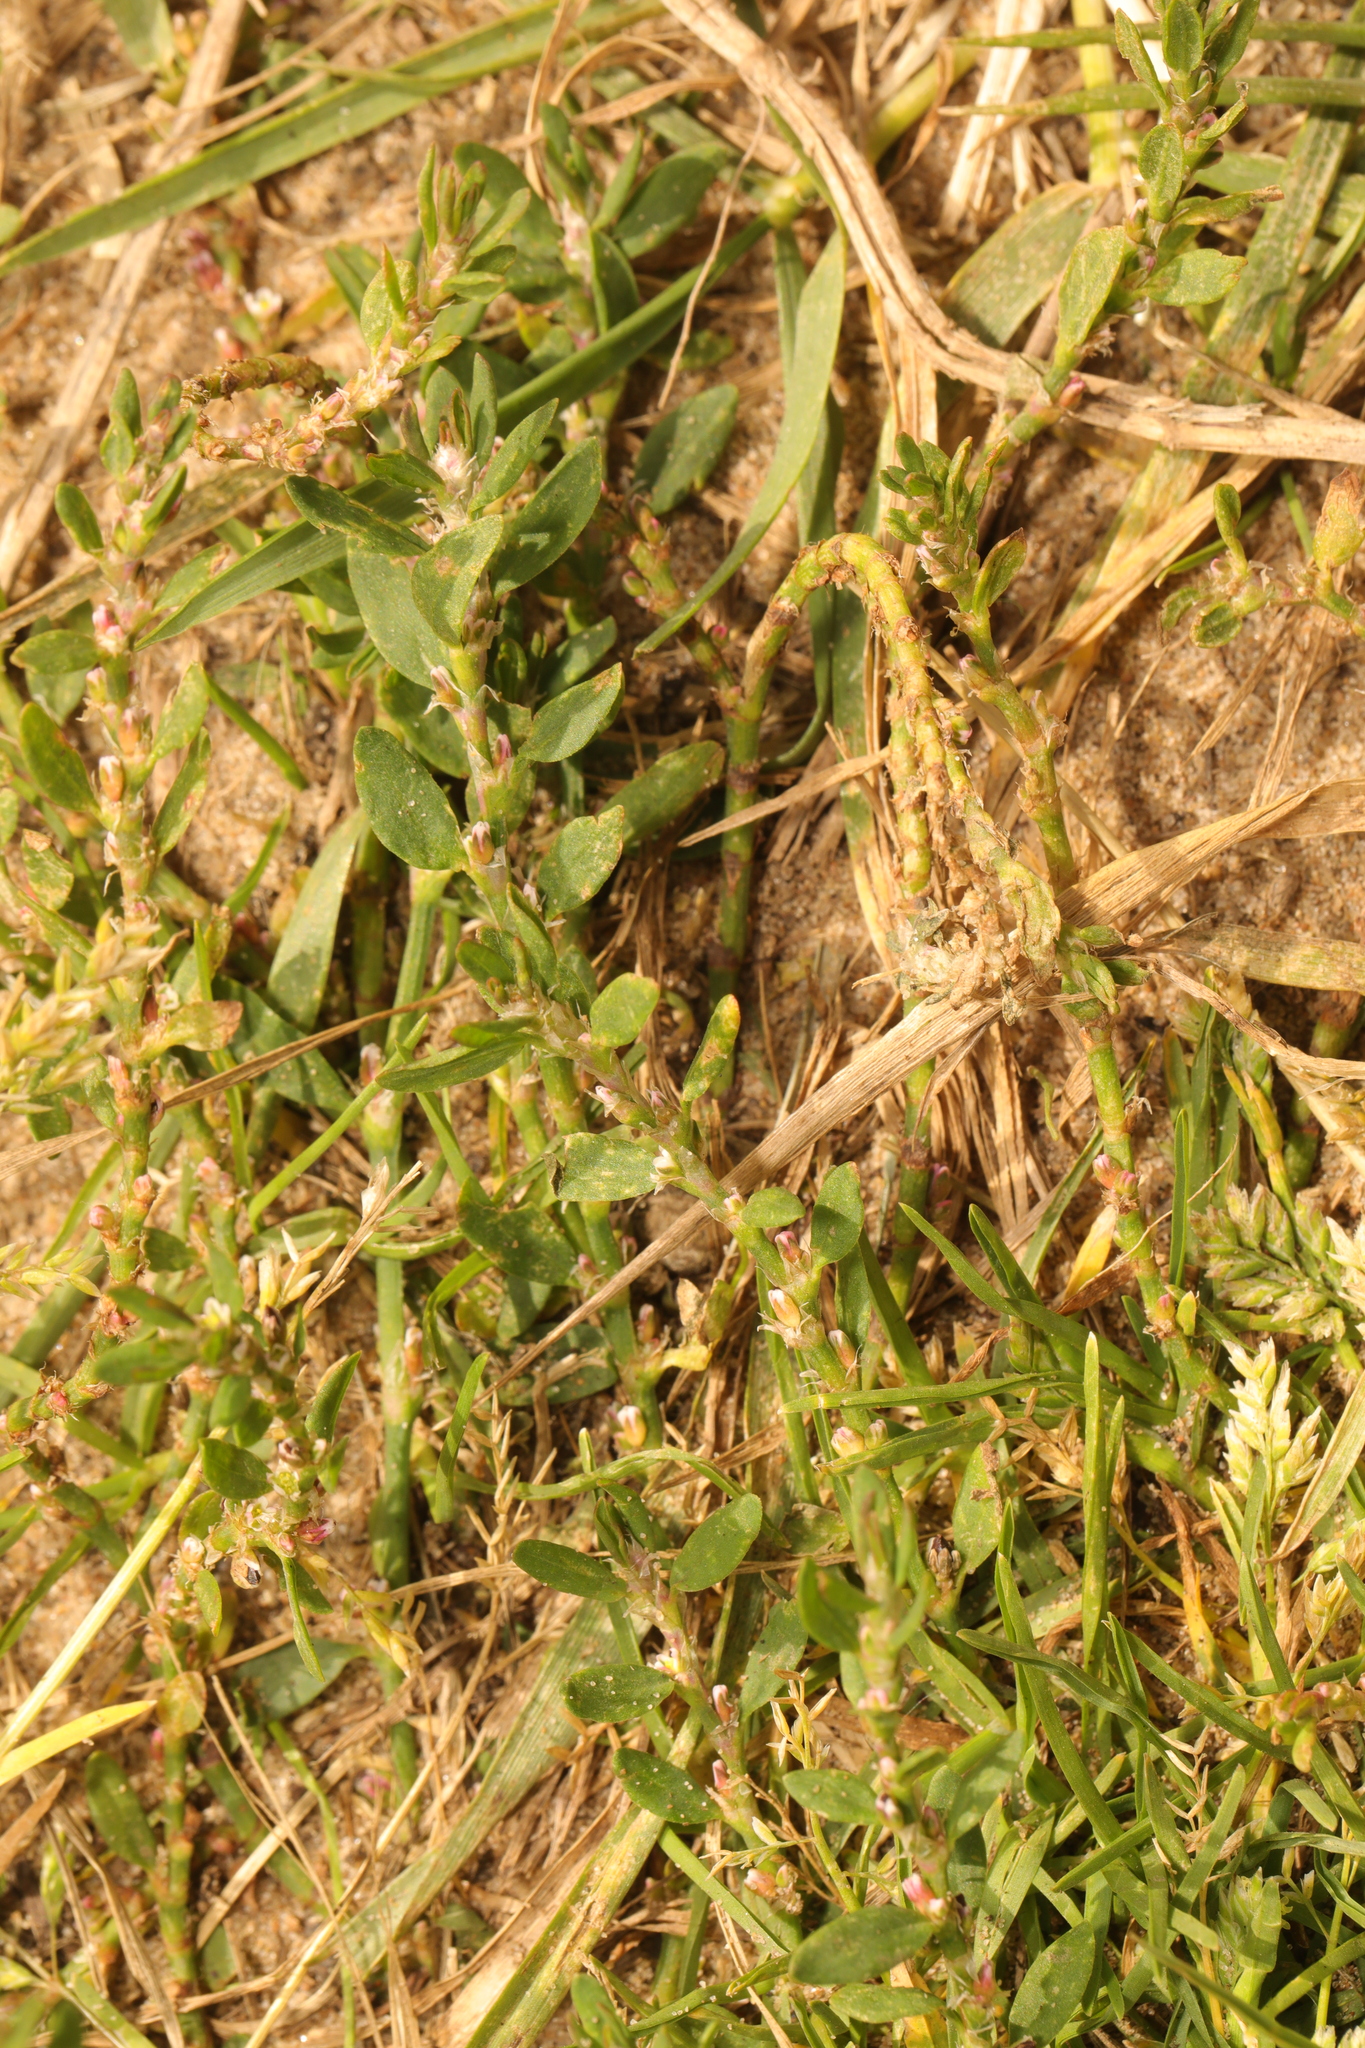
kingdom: Plantae
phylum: Tracheophyta
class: Magnoliopsida
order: Caryophyllales
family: Polygonaceae
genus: Polygonum
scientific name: Polygonum arenastrum
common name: Equal-leaved knotgrass
